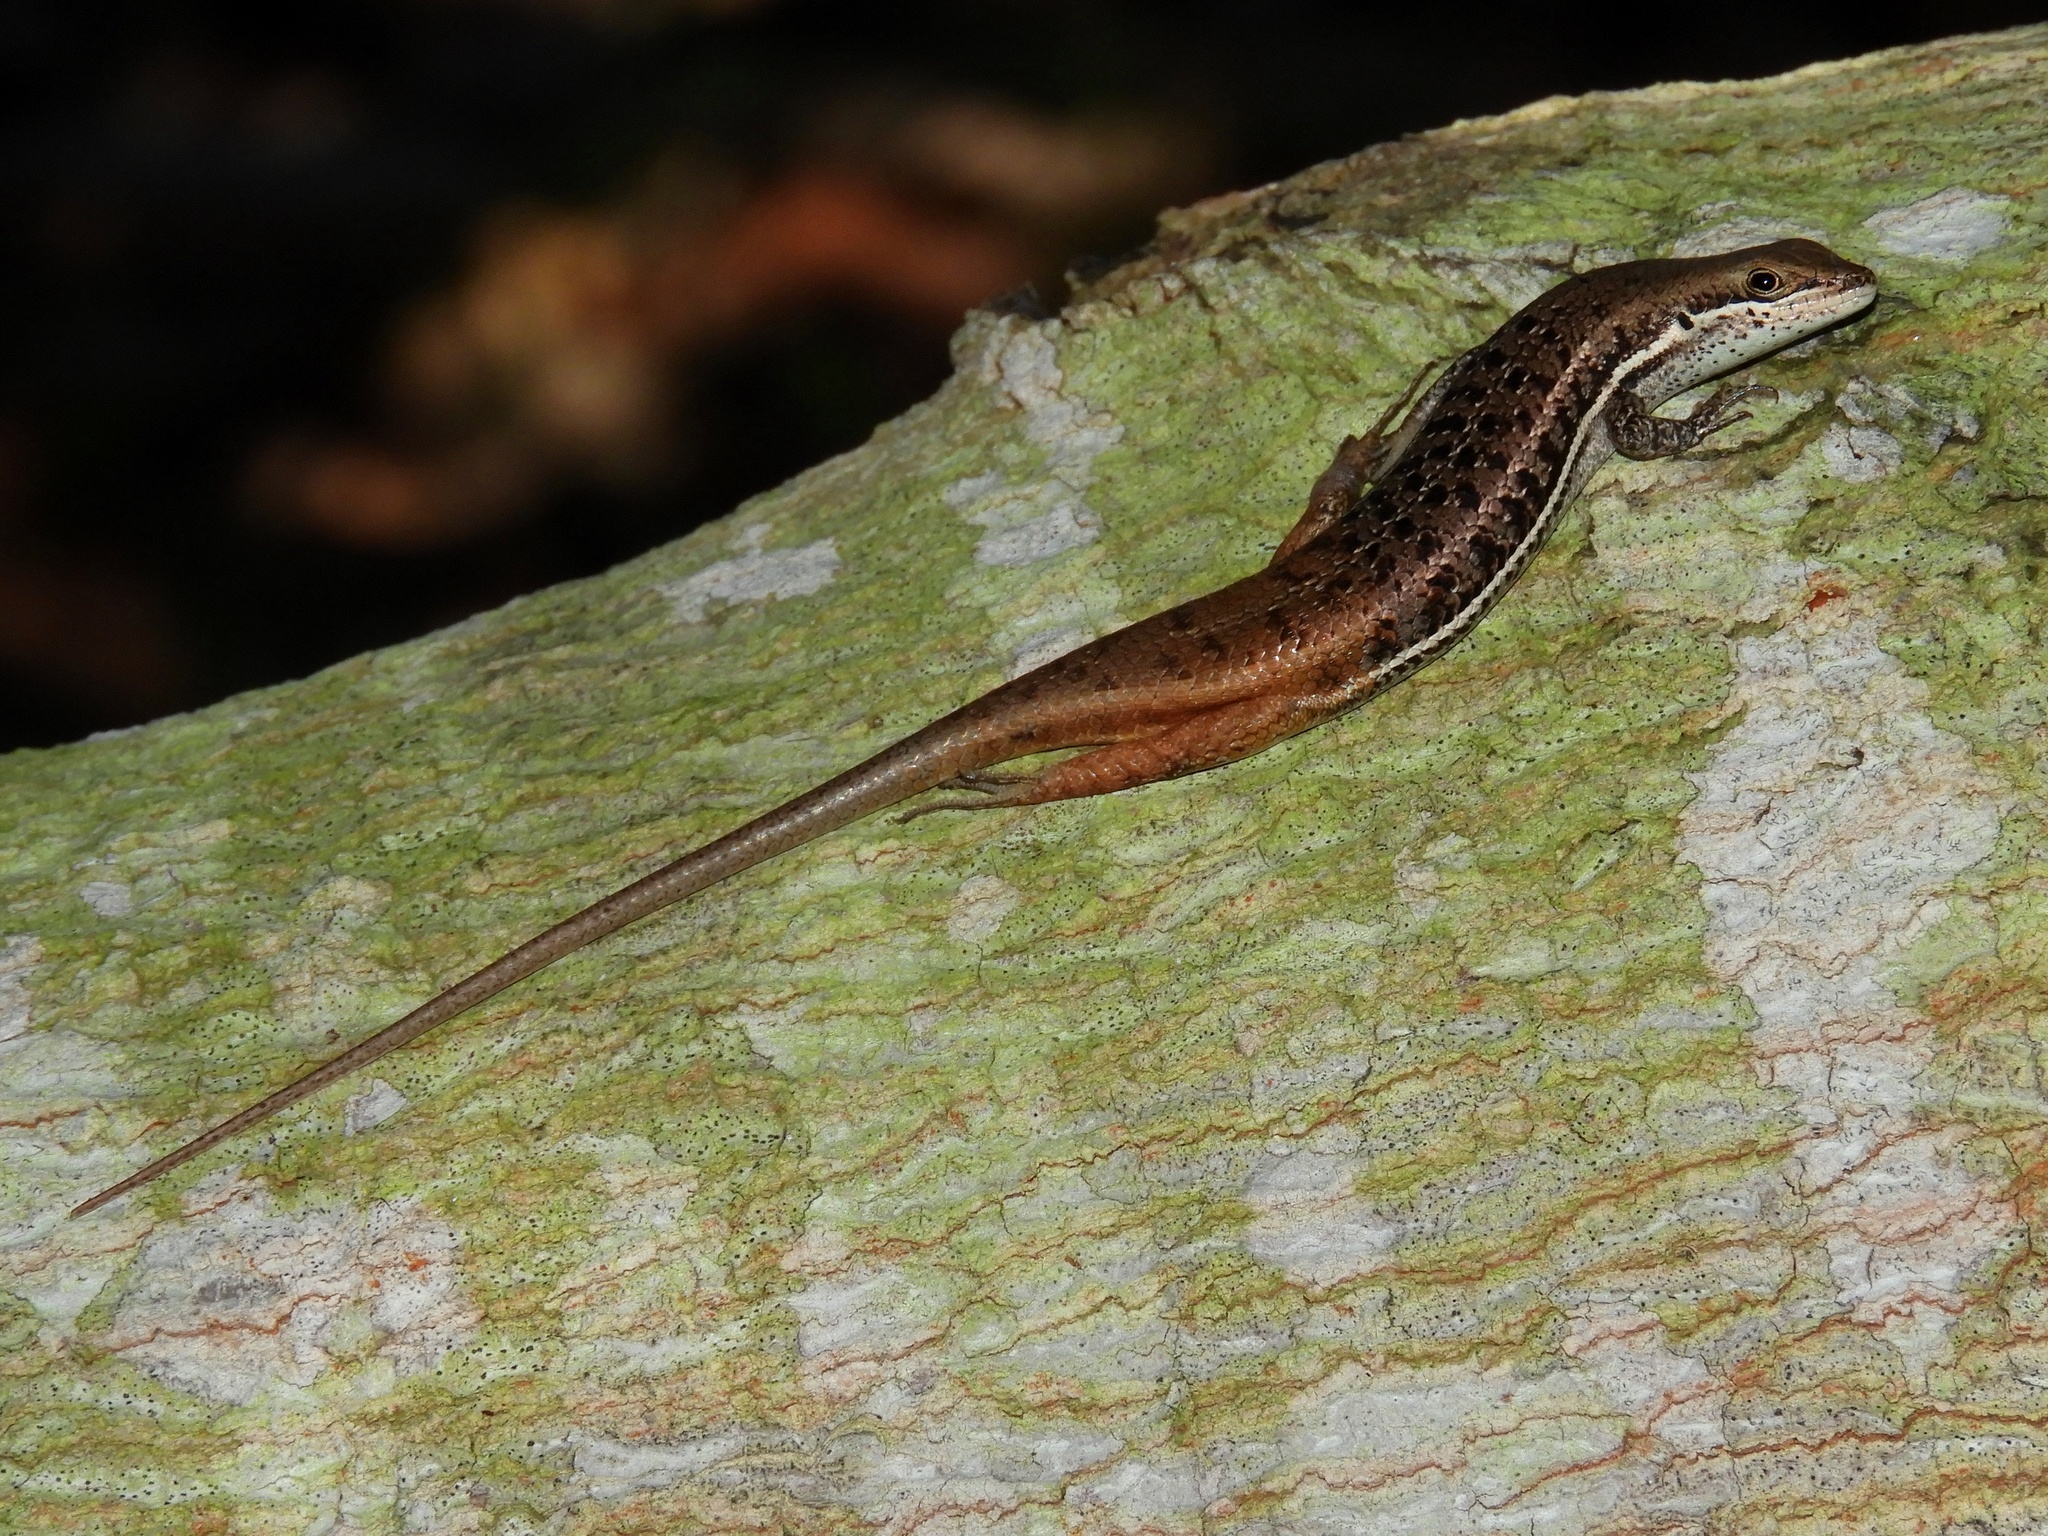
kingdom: Animalia
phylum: Chordata
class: Squamata
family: Scincidae
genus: Trachylepis
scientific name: Trachylepis varia
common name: Eastern variable skink
